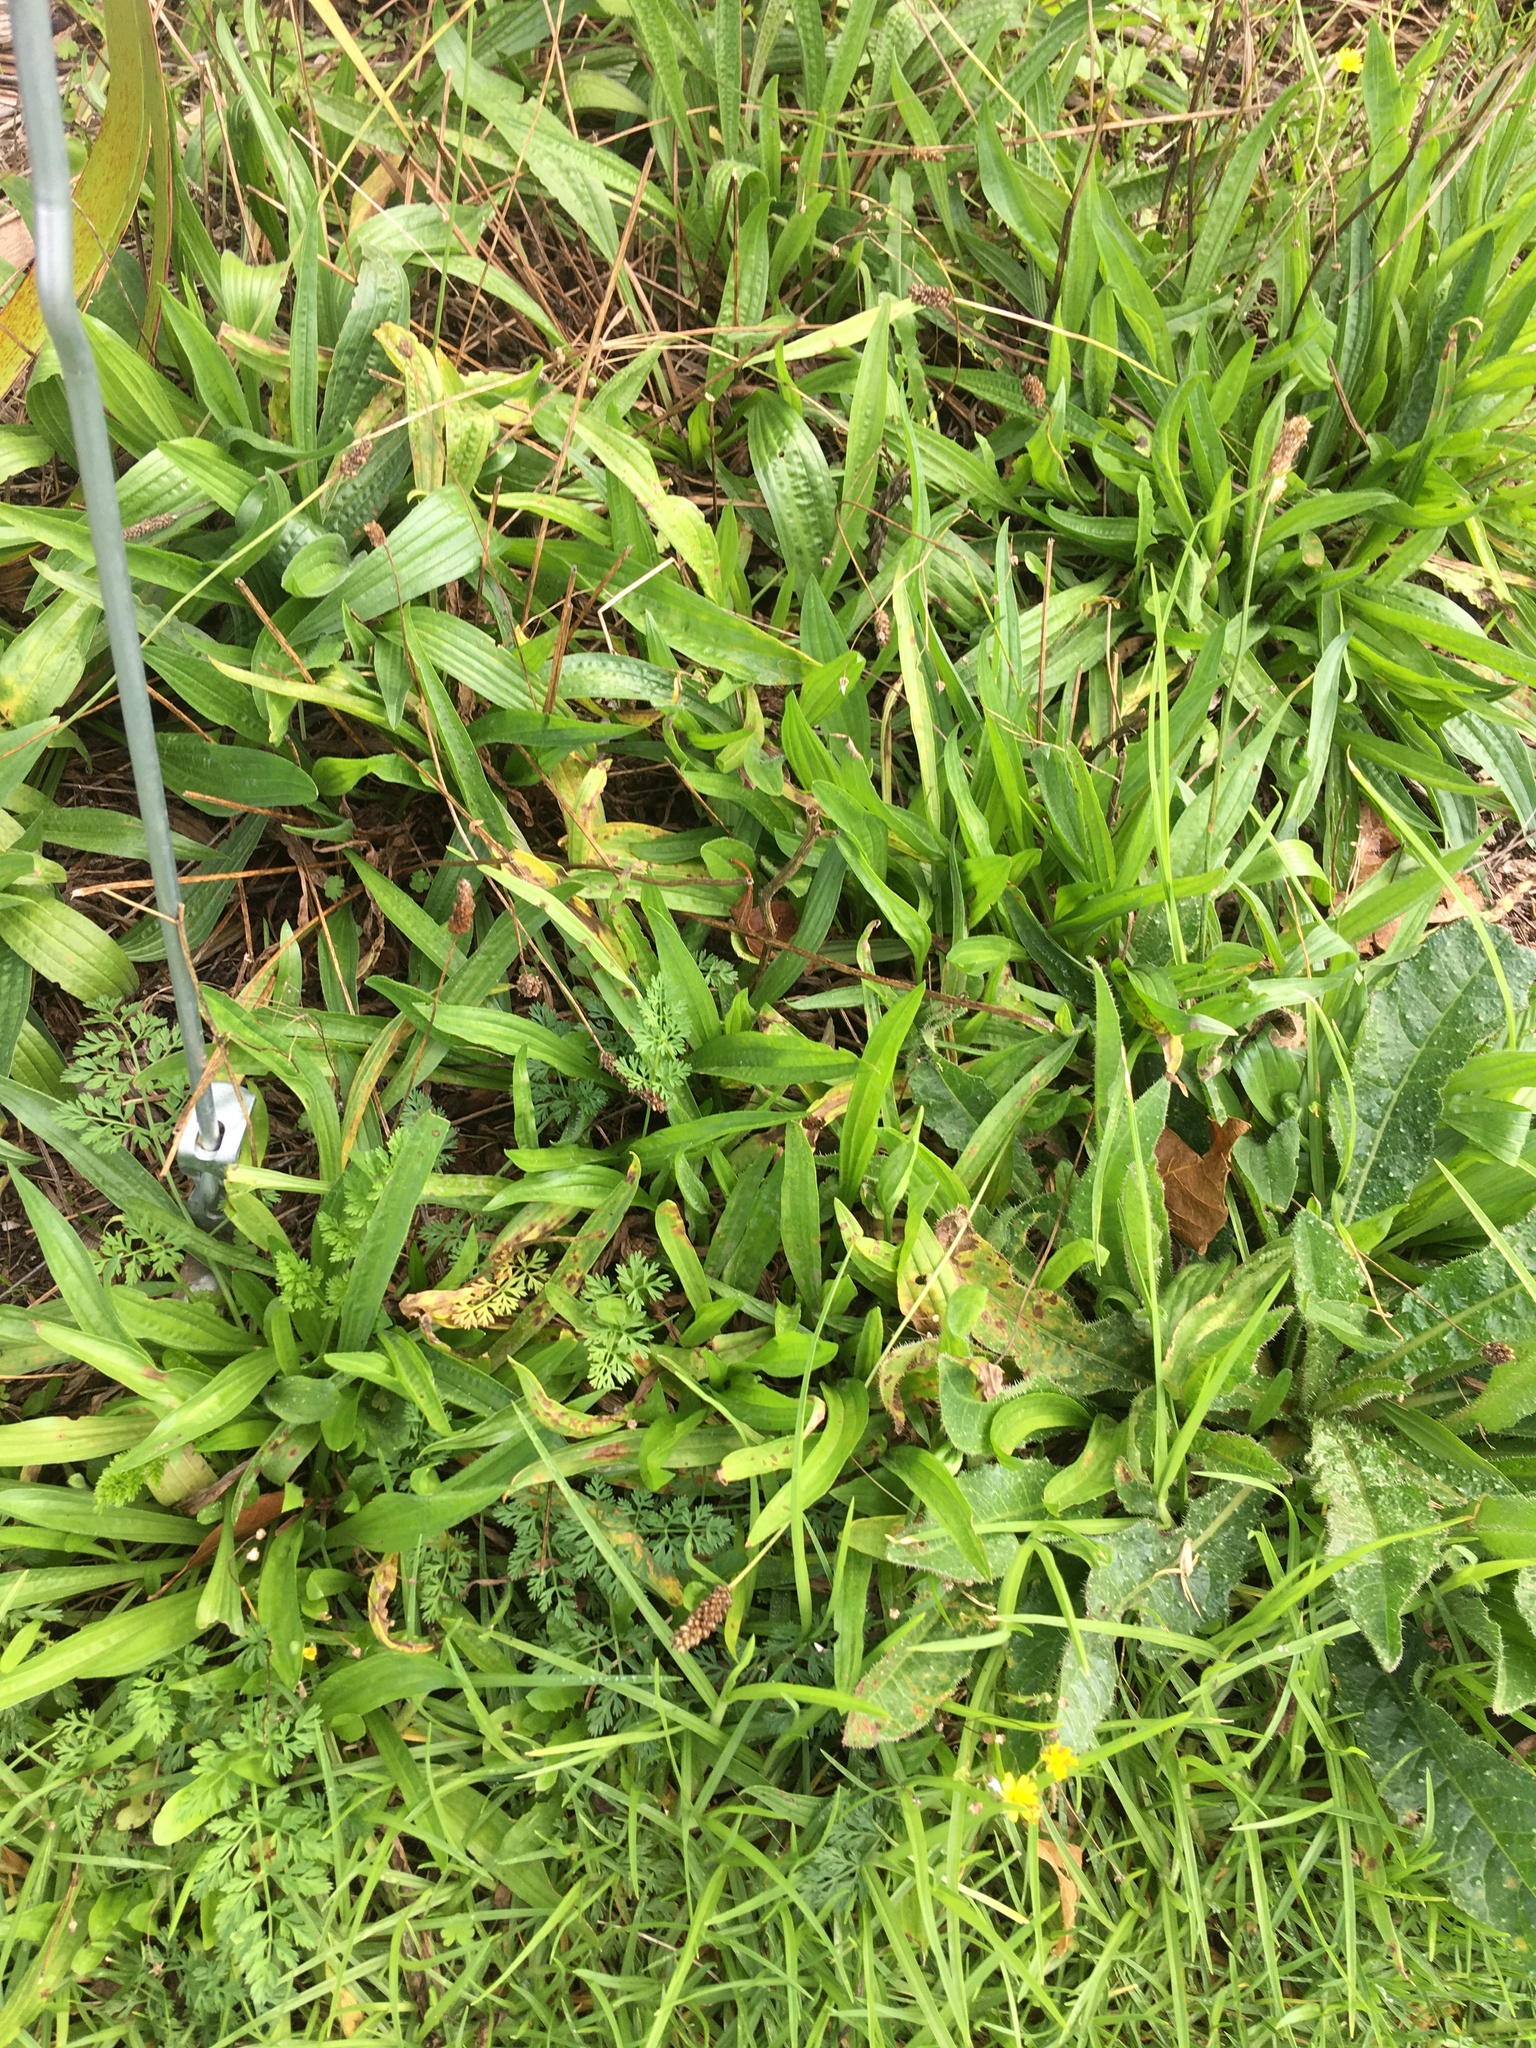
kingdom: Plantae
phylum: Tracheophyta
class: Magnoliopsida
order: Lamiales
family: Plantaginaceae
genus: Plantago
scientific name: Plantago lanceolata
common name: Ribwort plantain
